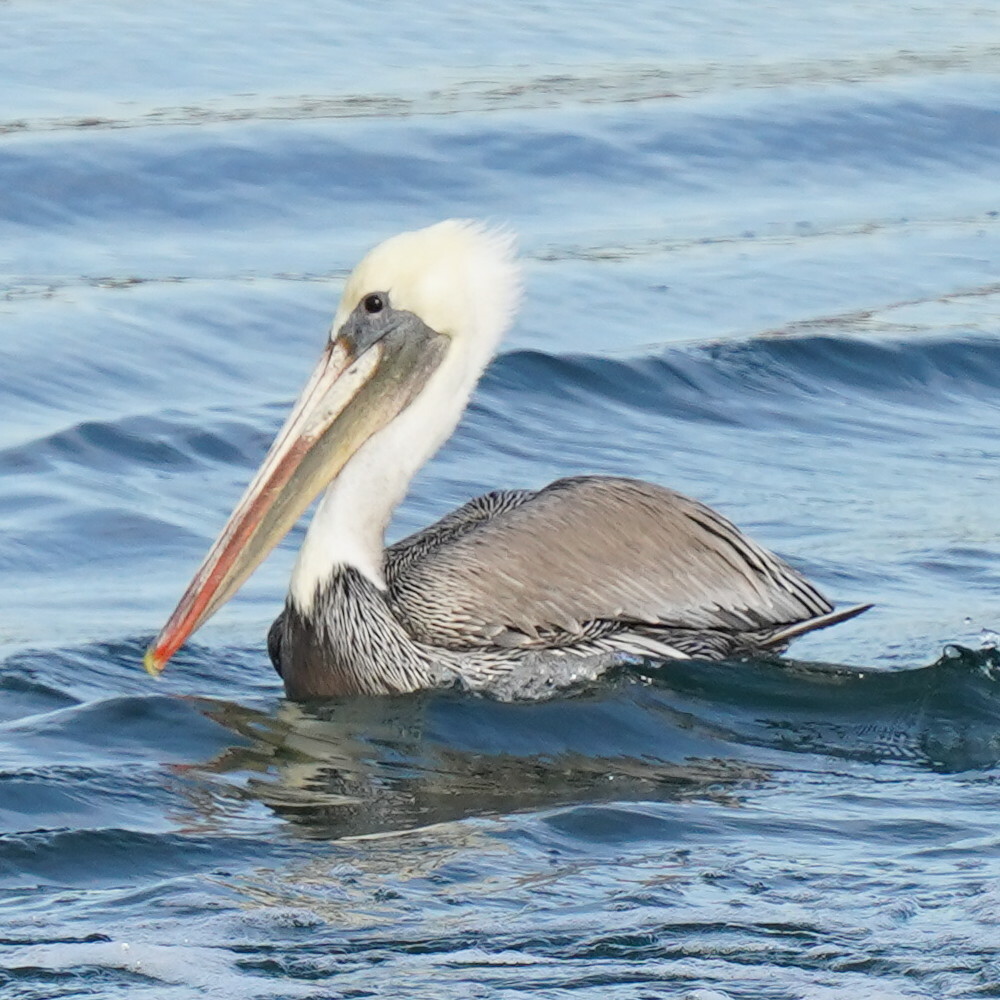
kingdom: Animalia
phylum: Chordata
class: Aves
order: Pelecaniformes
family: Pelecanidae
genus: Pelecanus
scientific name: Pelecanus occidentalis
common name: Brown pelican
